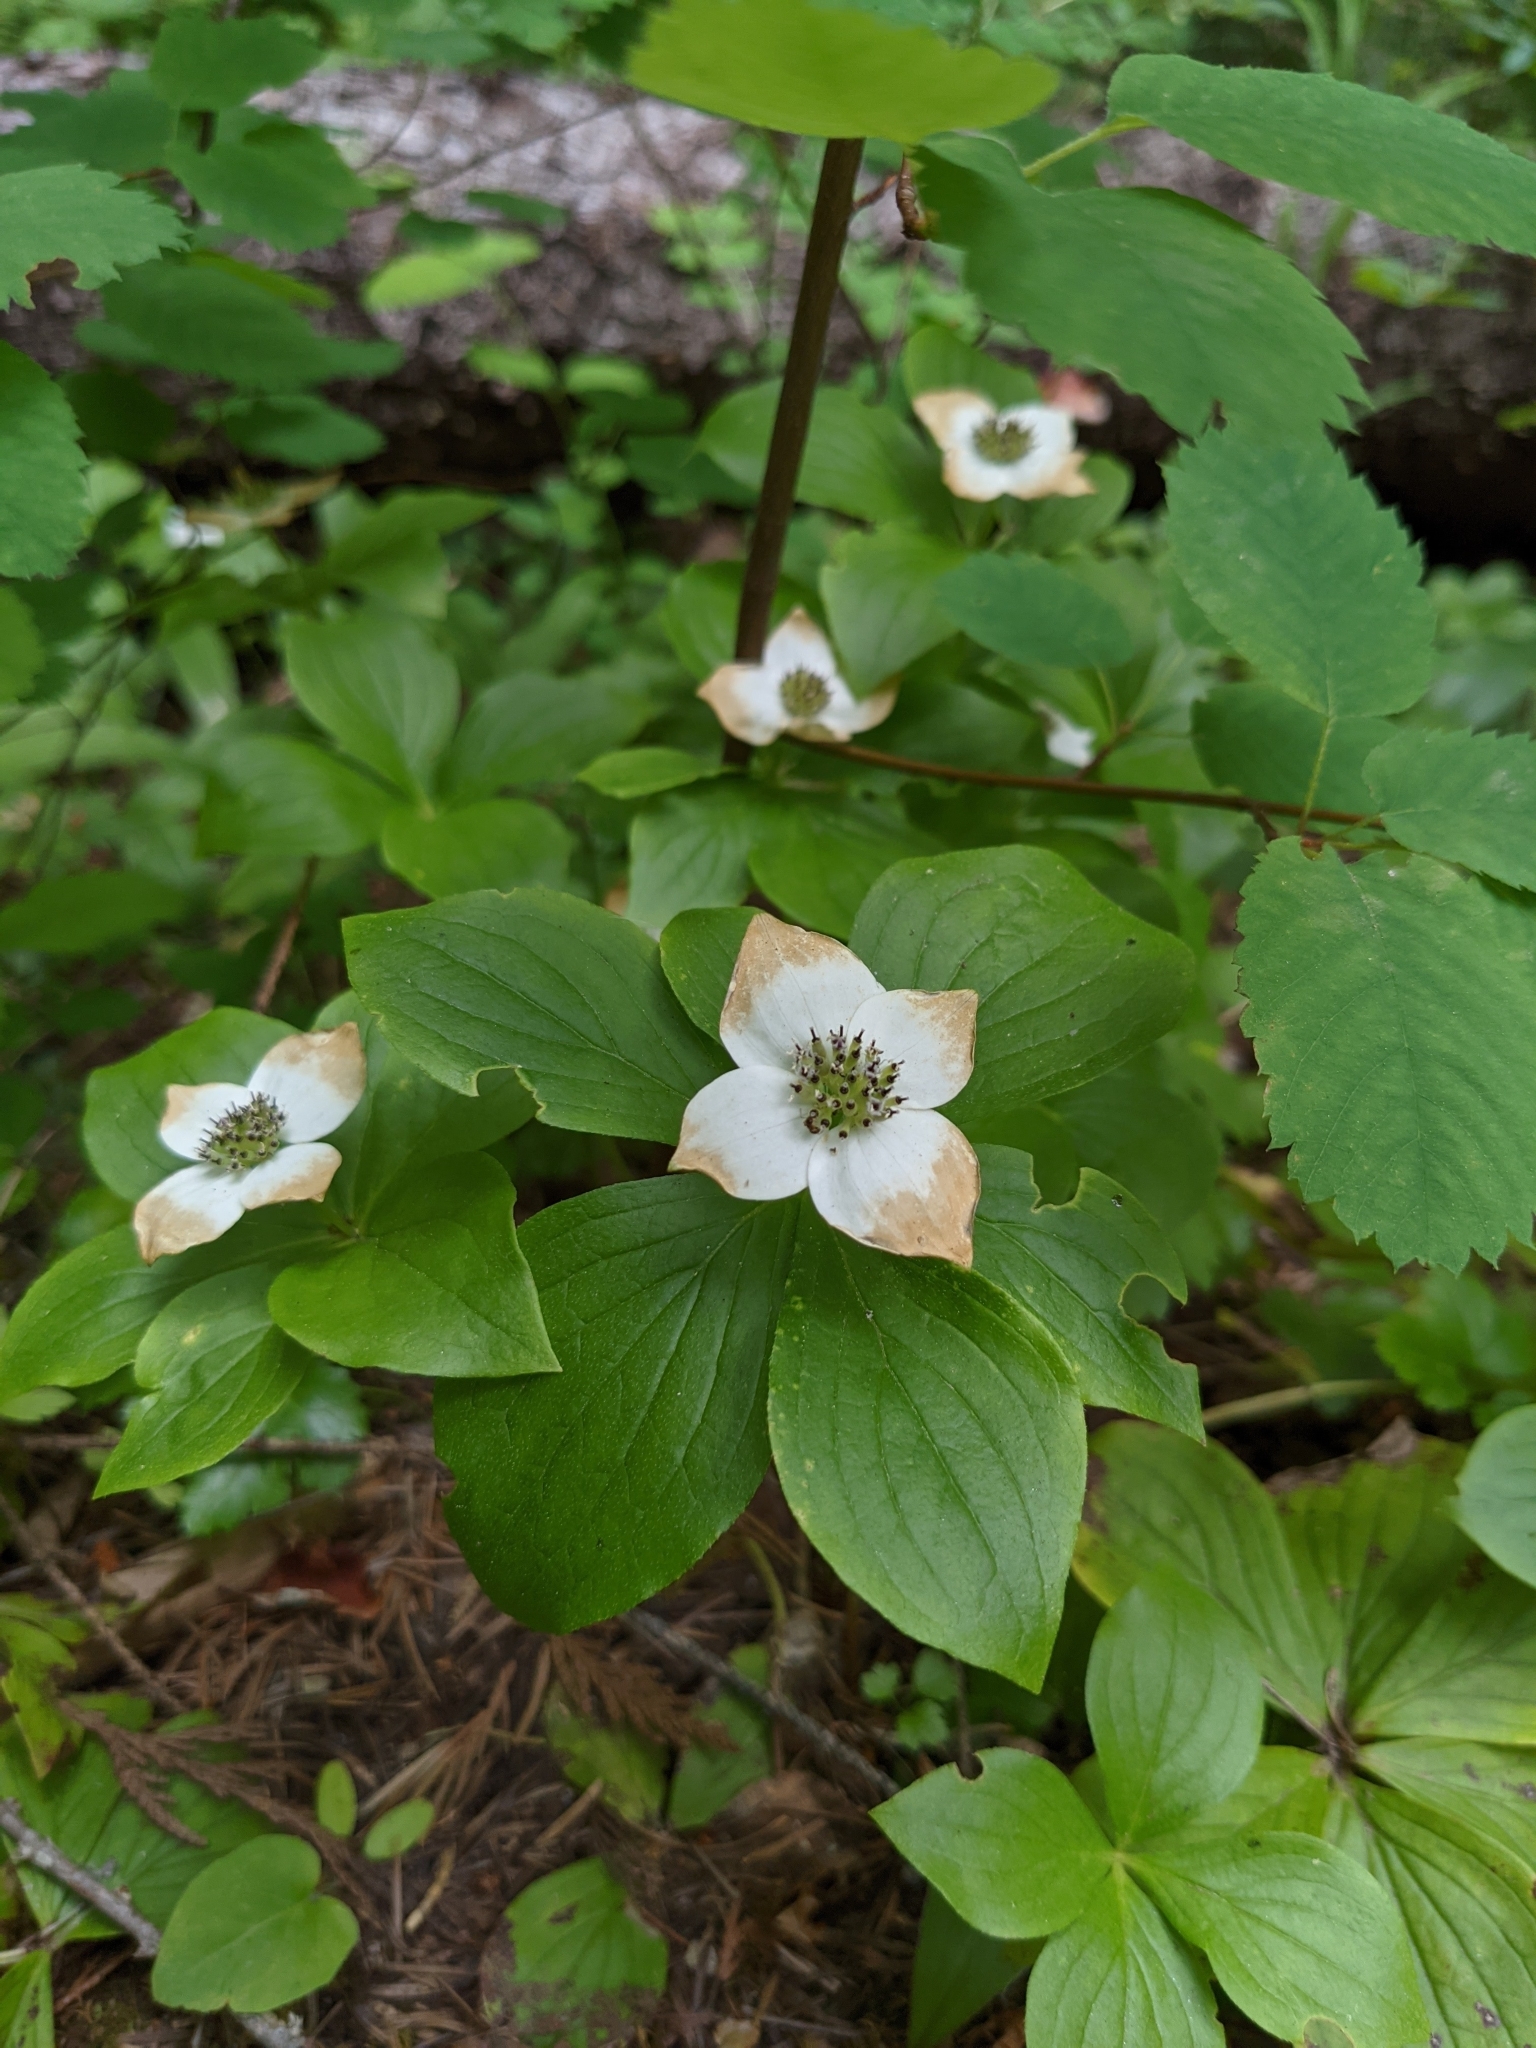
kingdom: Plantae
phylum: Tracheophyta
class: Magnoliopsida
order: Cornales
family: Cornaceae
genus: Cornus
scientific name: Cornus unalaschkensis
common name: Alaska bunchberry
